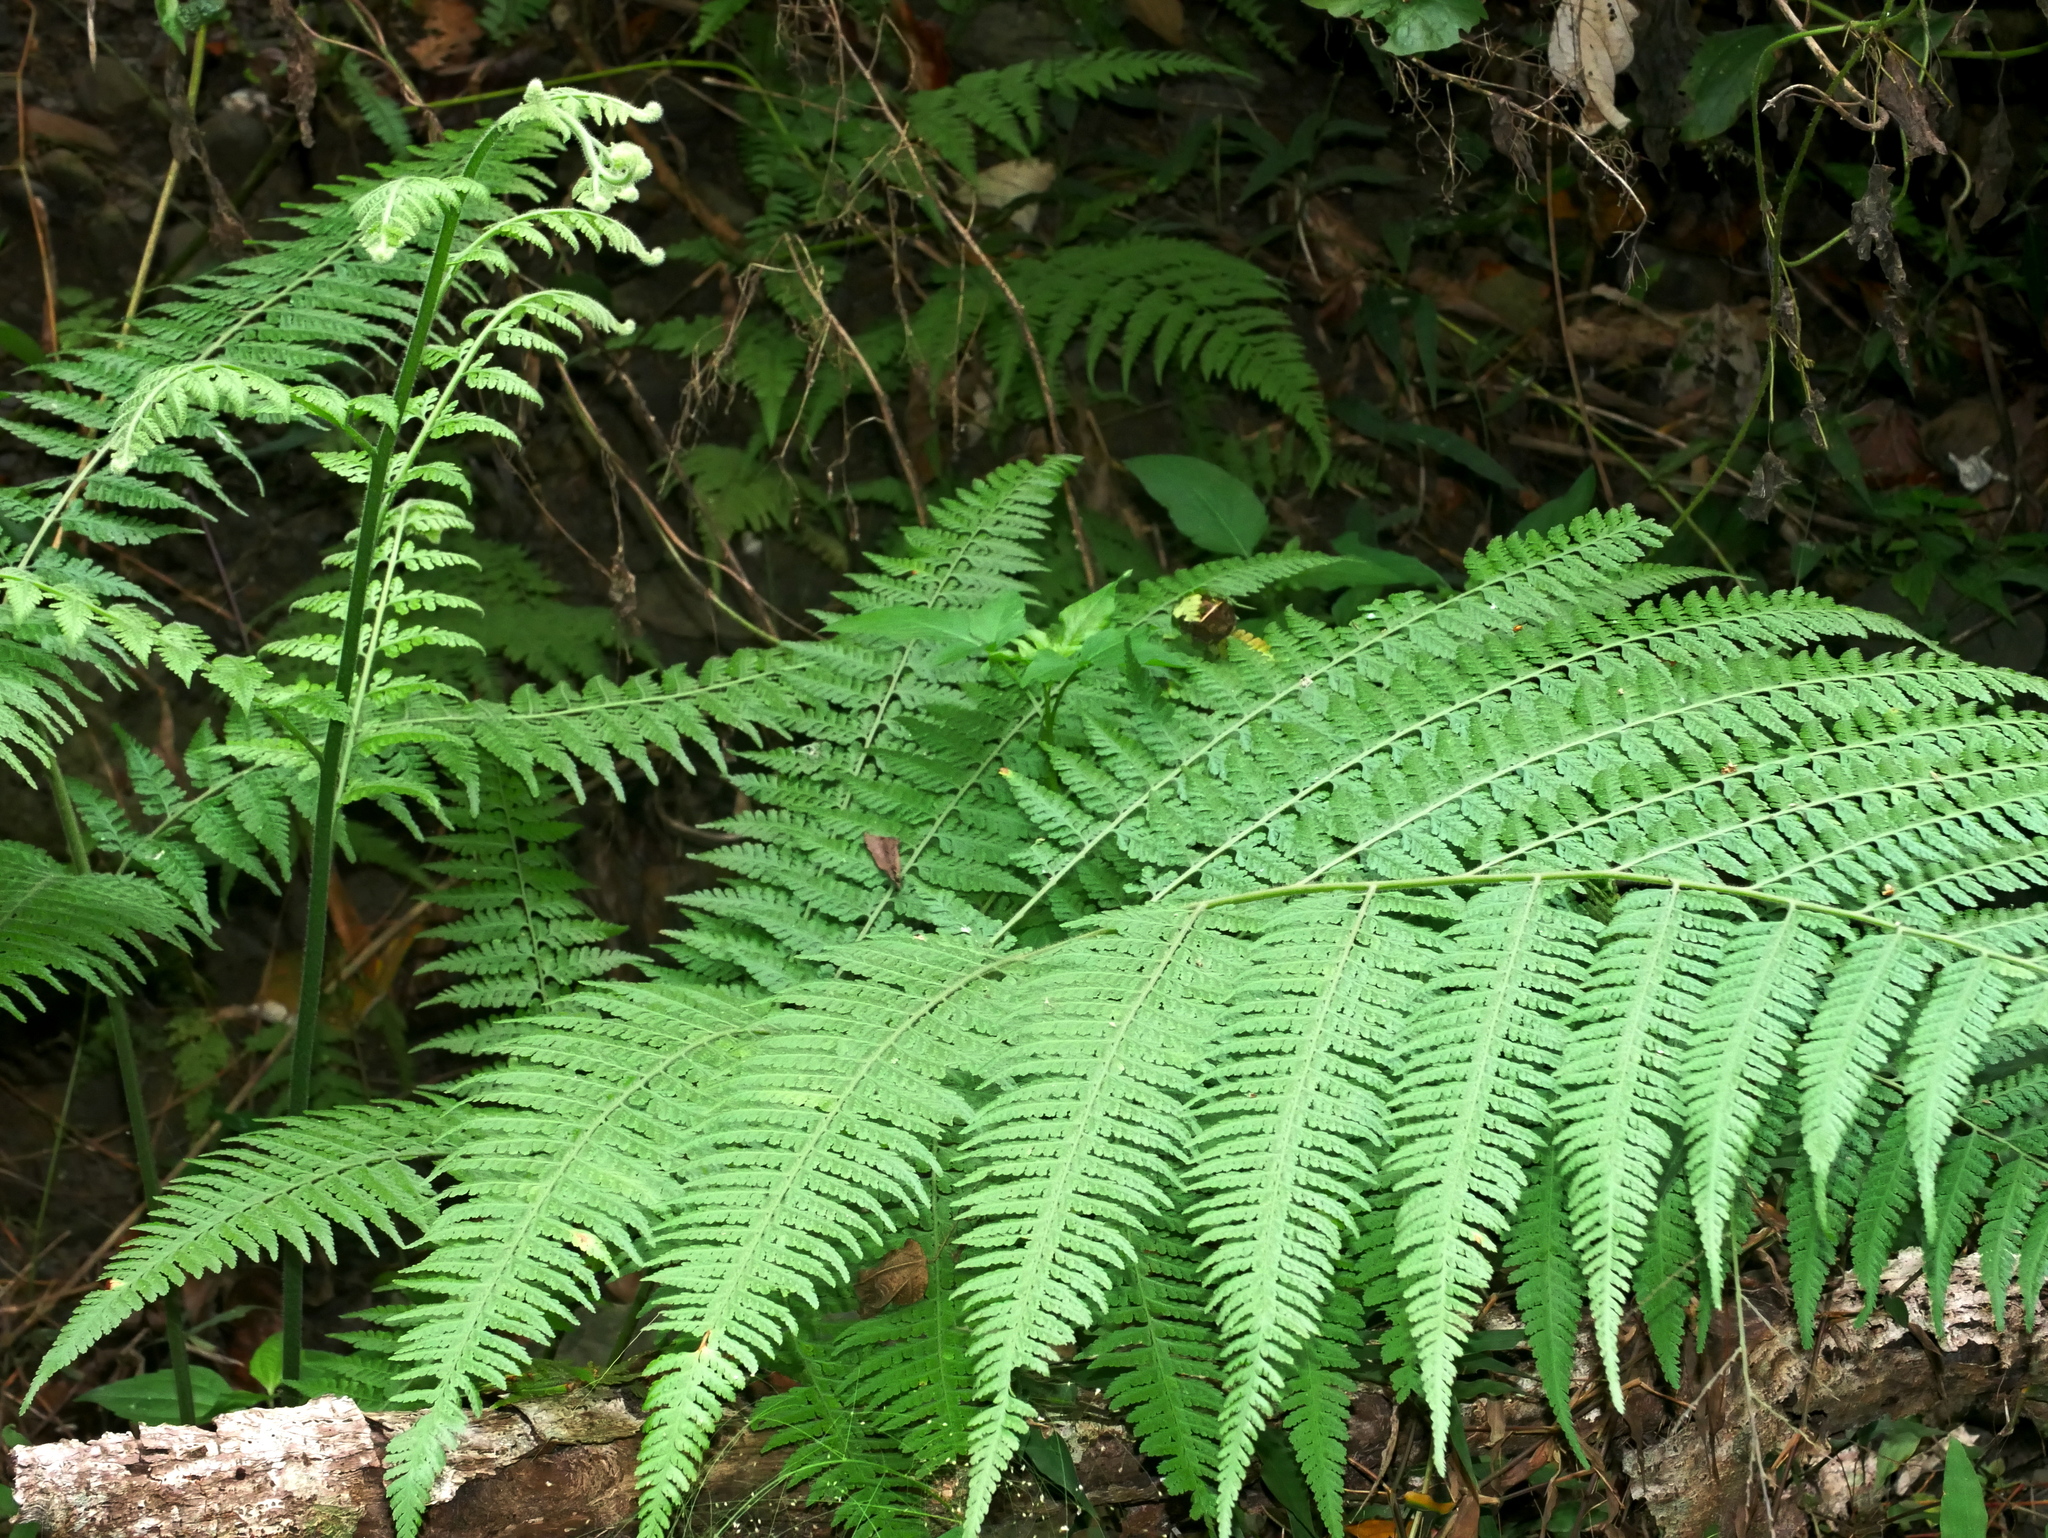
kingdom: Plantae
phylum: Tracheophyta
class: Polypodiopsida
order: Polypodiales
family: Dennstaedtiaceae
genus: Microlepia
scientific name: Microlepia speluncae
